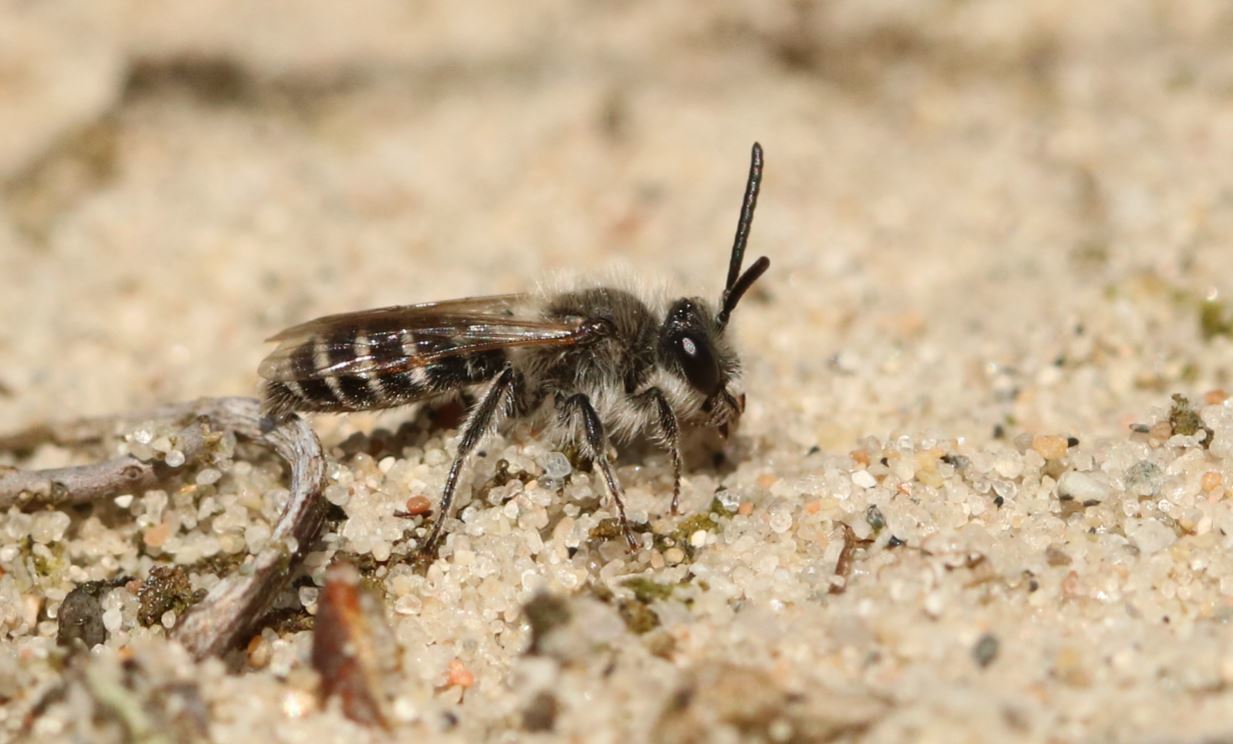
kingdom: Animalia
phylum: Arthropoda
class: Insecta
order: Hymenoptera
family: Andrenidae
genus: Andrena
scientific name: Andrena argentata
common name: Small sandpit mining bee
